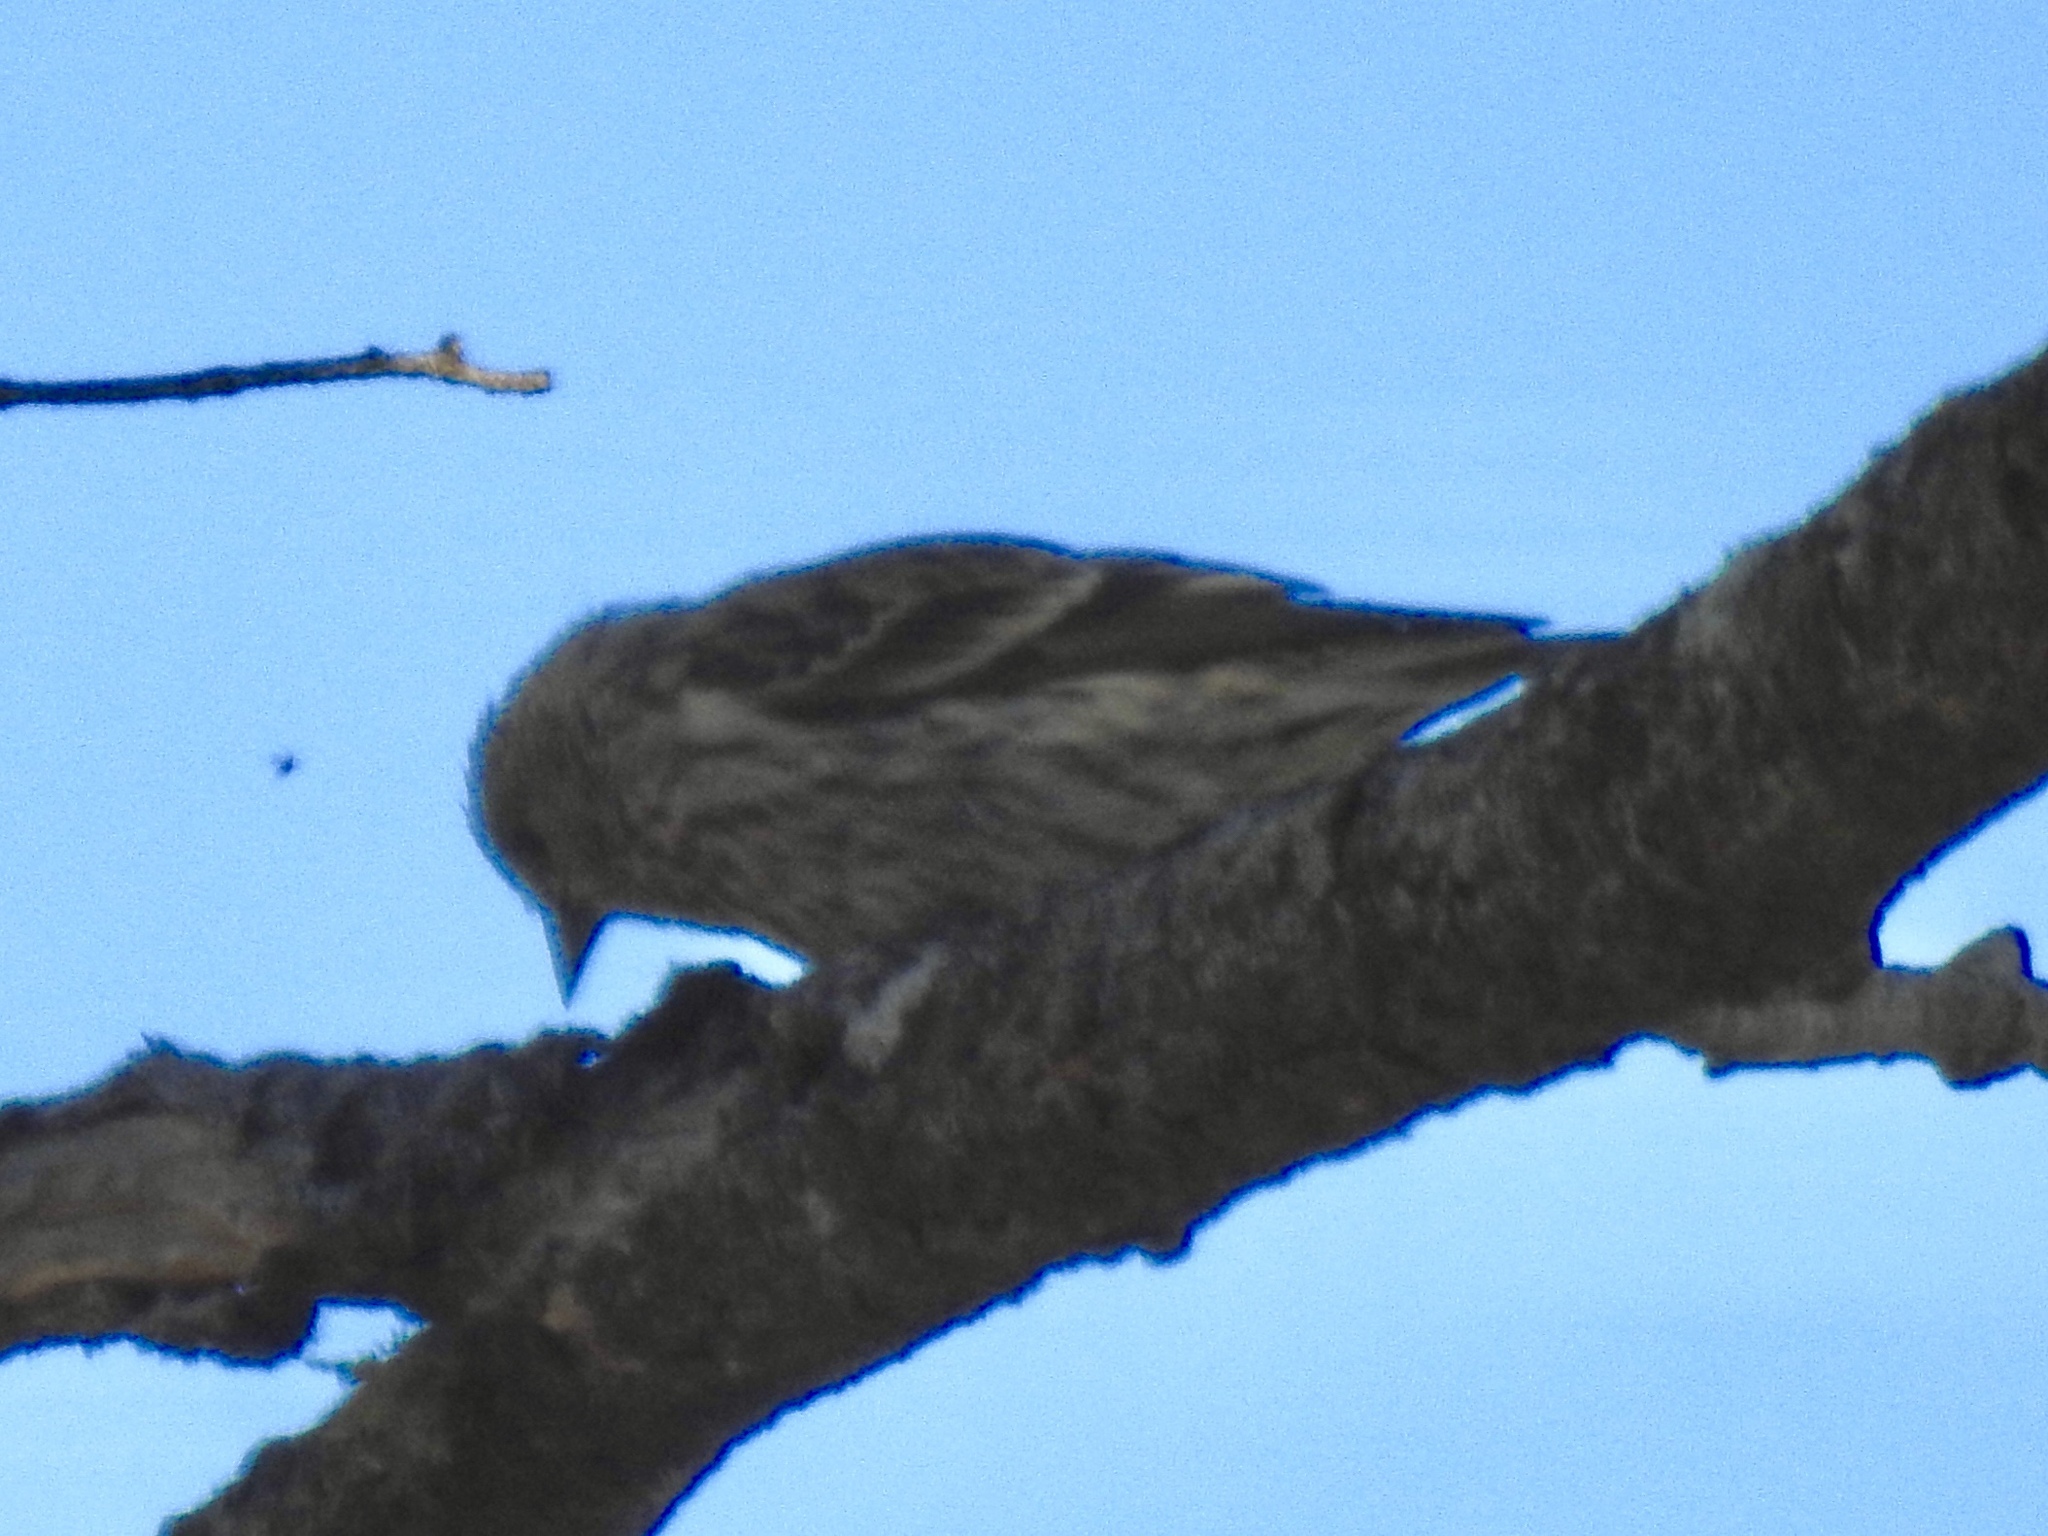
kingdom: Animalia
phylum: Chordata
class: Aves
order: Passeriformes
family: Fringillidae
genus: Spinus
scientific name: Spinus pinus
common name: Pine siskin
